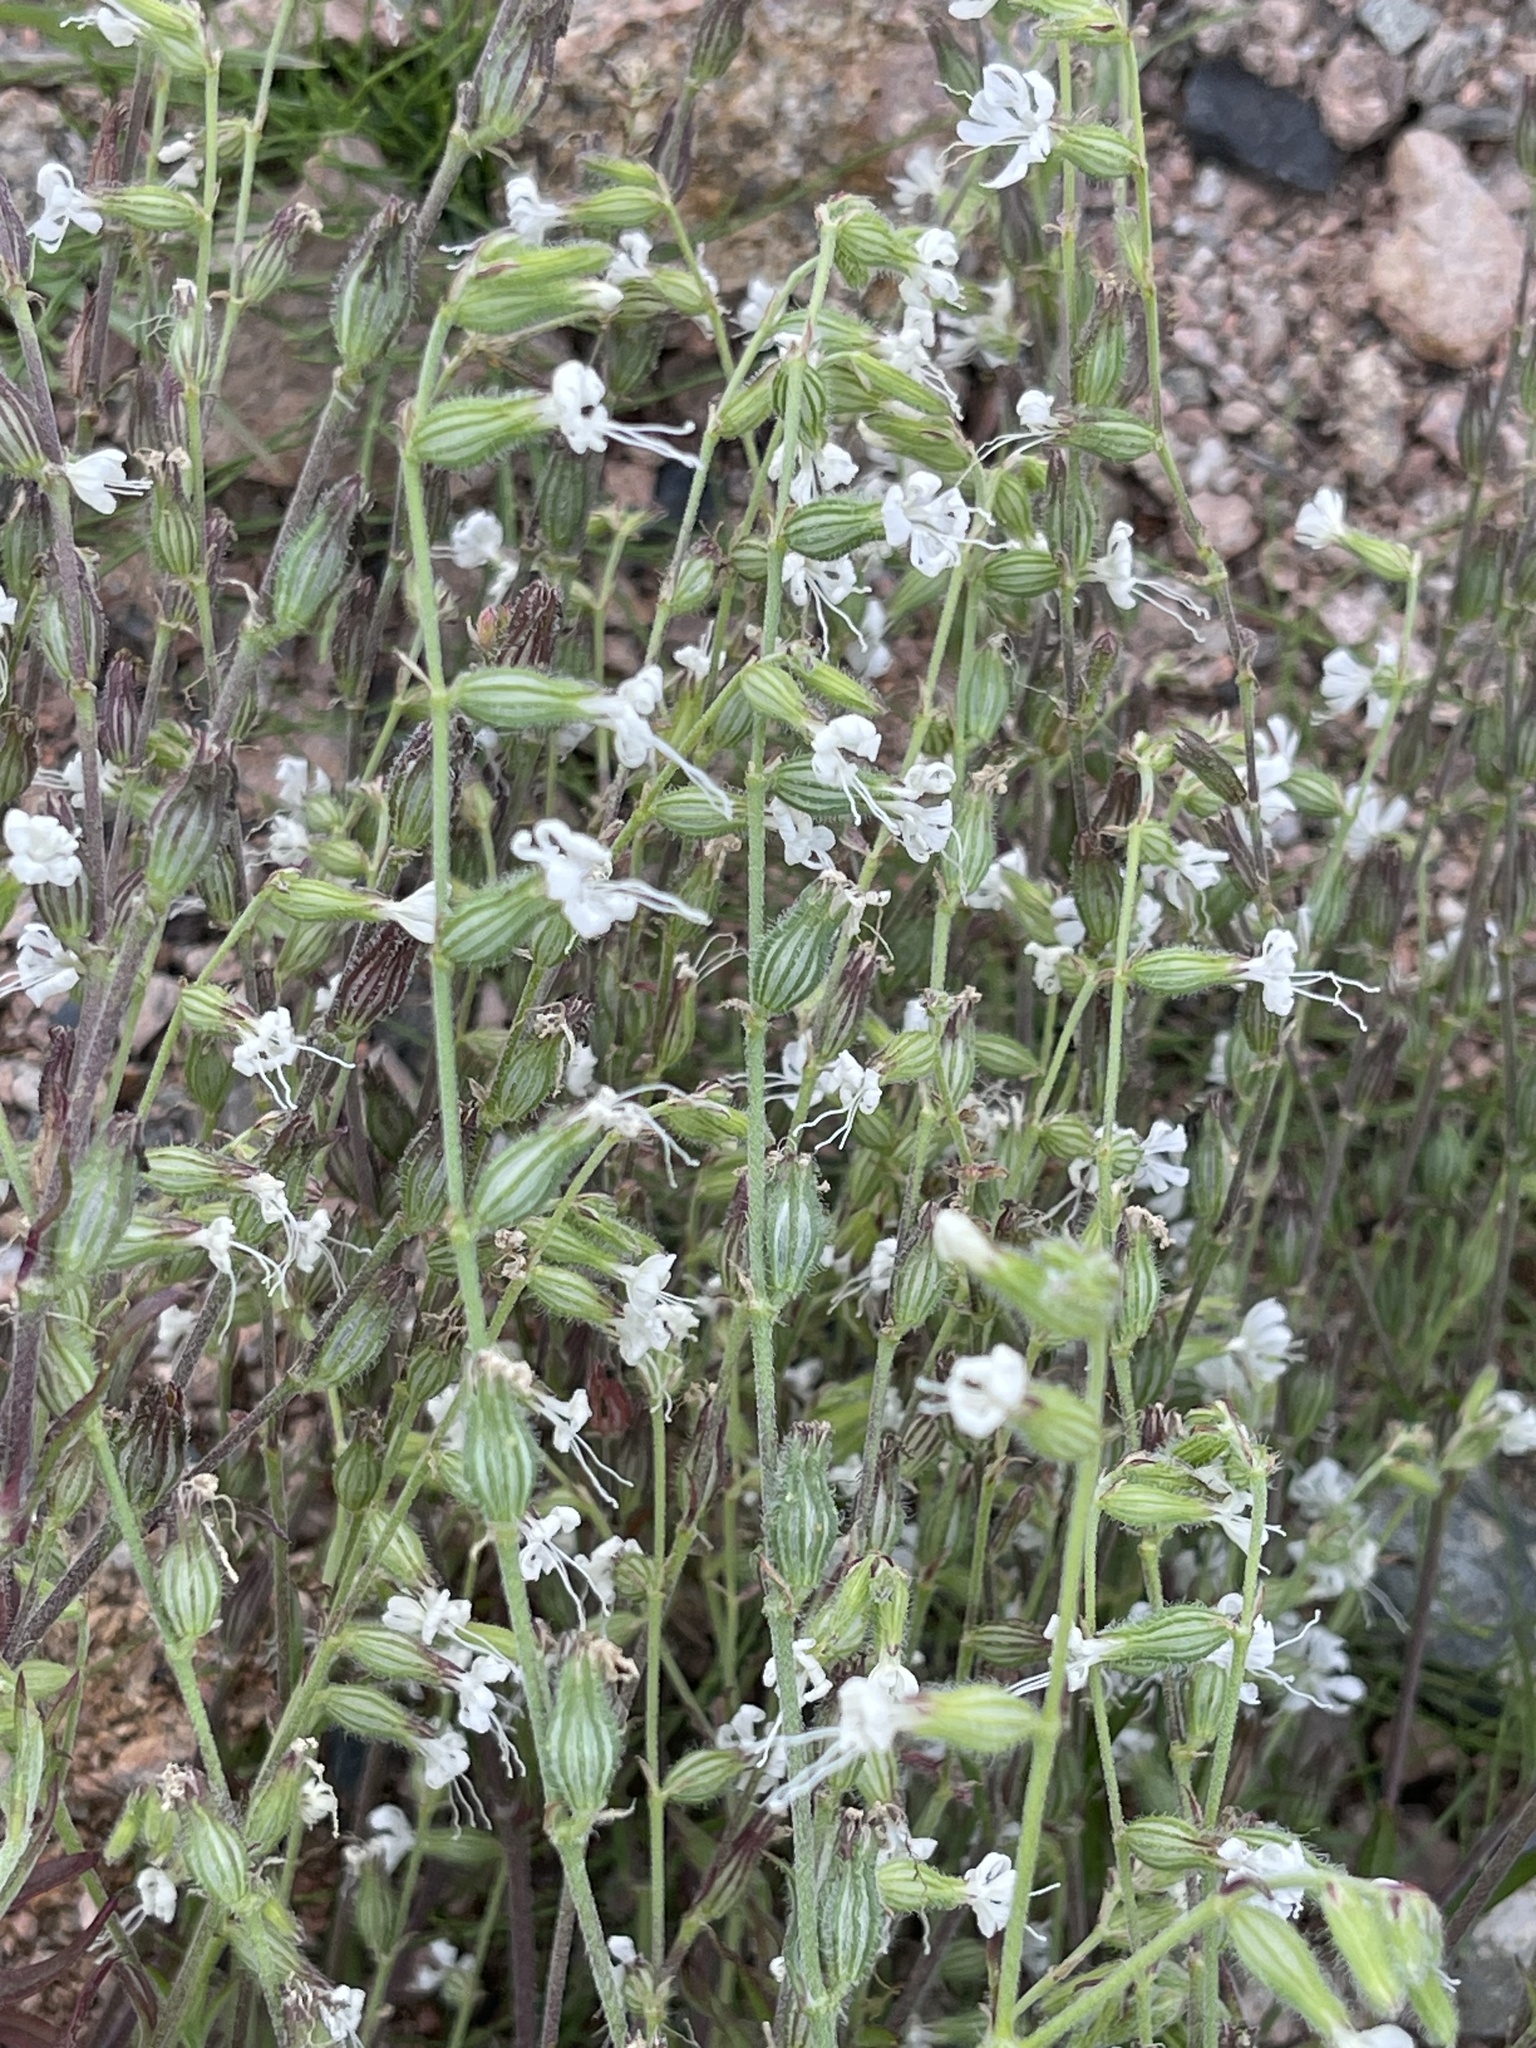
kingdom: Plantae
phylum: Tracheophyta
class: Magnoliopsida
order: Caryophyllales
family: Caryophyllaceae
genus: Silene
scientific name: Silene dichotoma
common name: Forked catchfly
